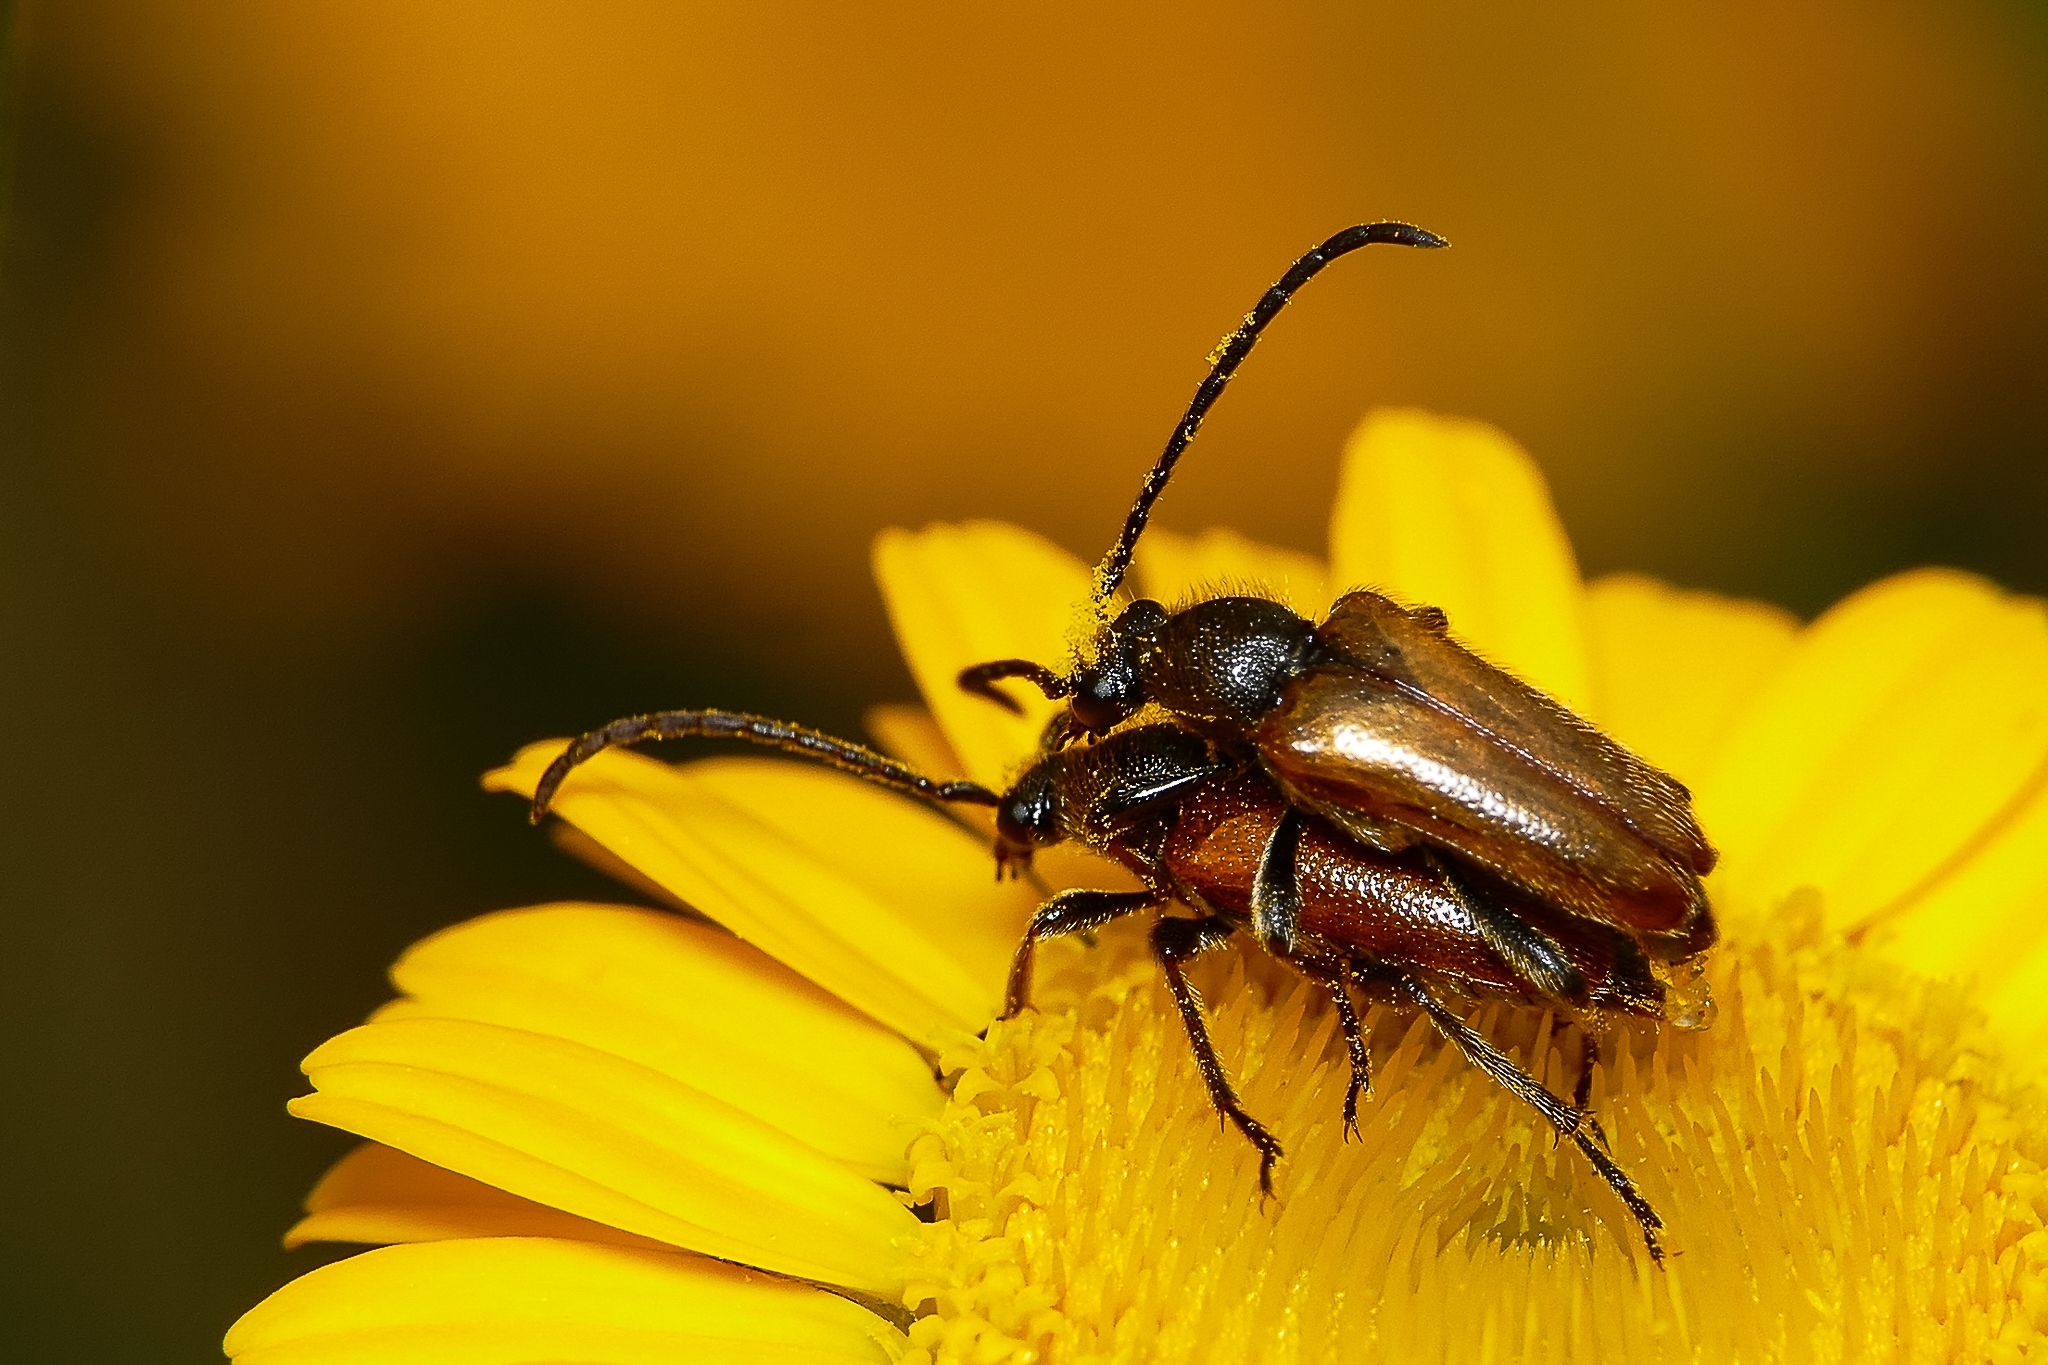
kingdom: Animalia
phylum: Arthropoda
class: Insecta
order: Coleoptera
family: Cerambycidae
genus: Pseudovadonia
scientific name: Pseudovadonia livida
